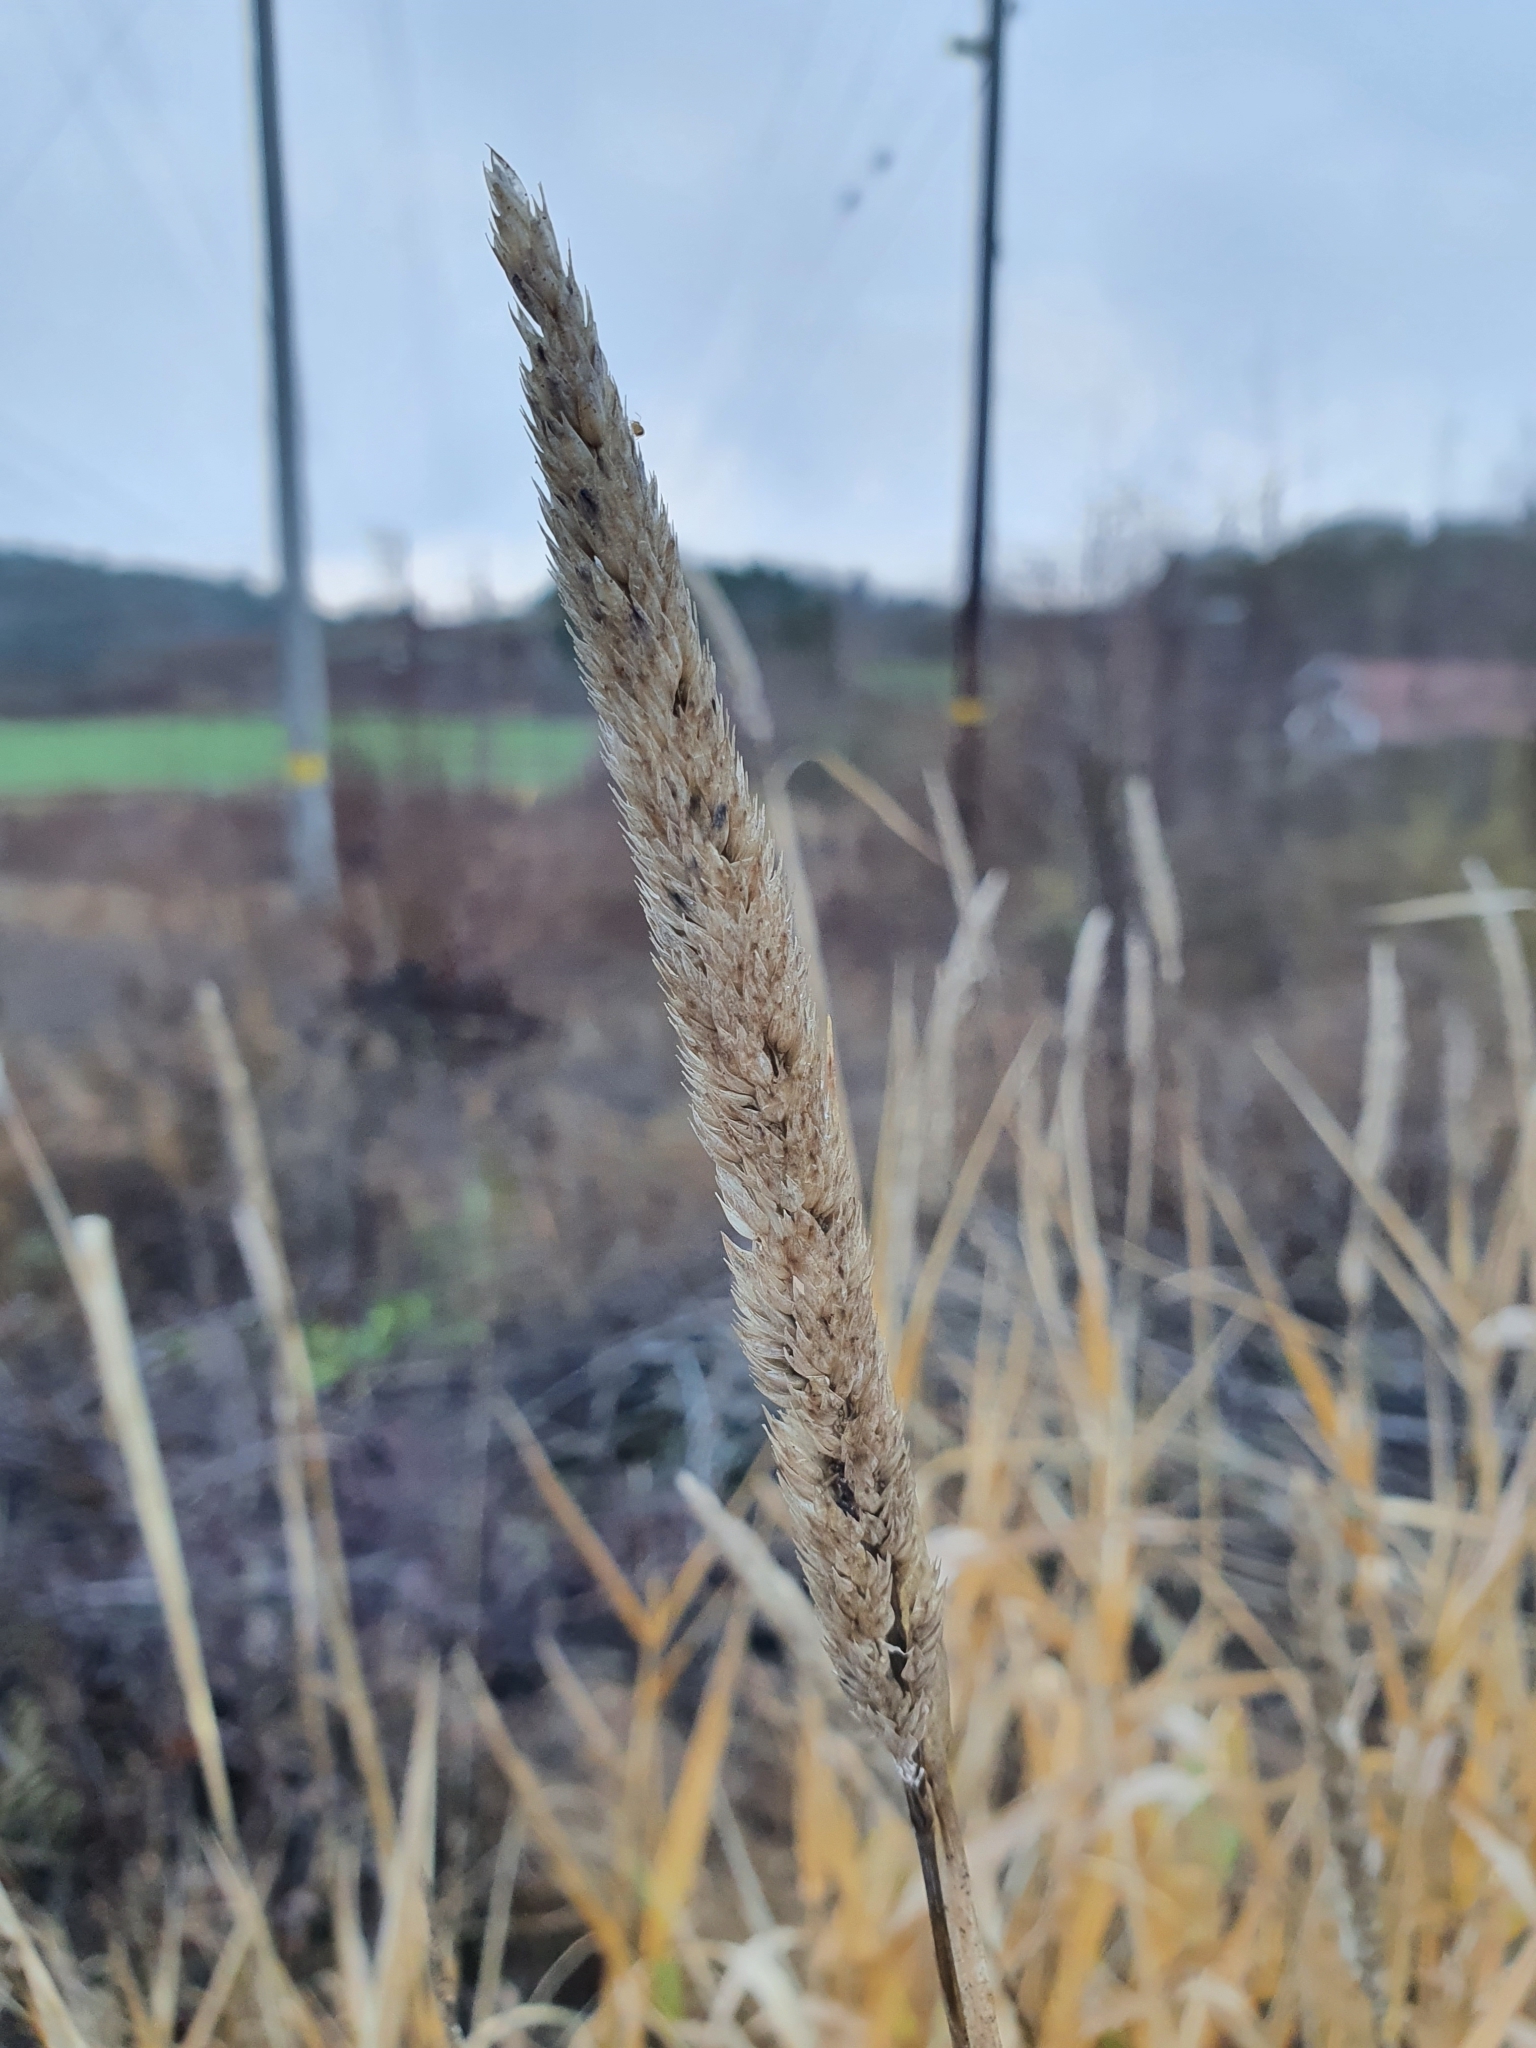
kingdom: Plantae
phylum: Tracheophyta
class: Liliopsida
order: Poales
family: Poaceae
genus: Phalaris
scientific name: Phalaris arundinacea
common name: Reed canary-grass
